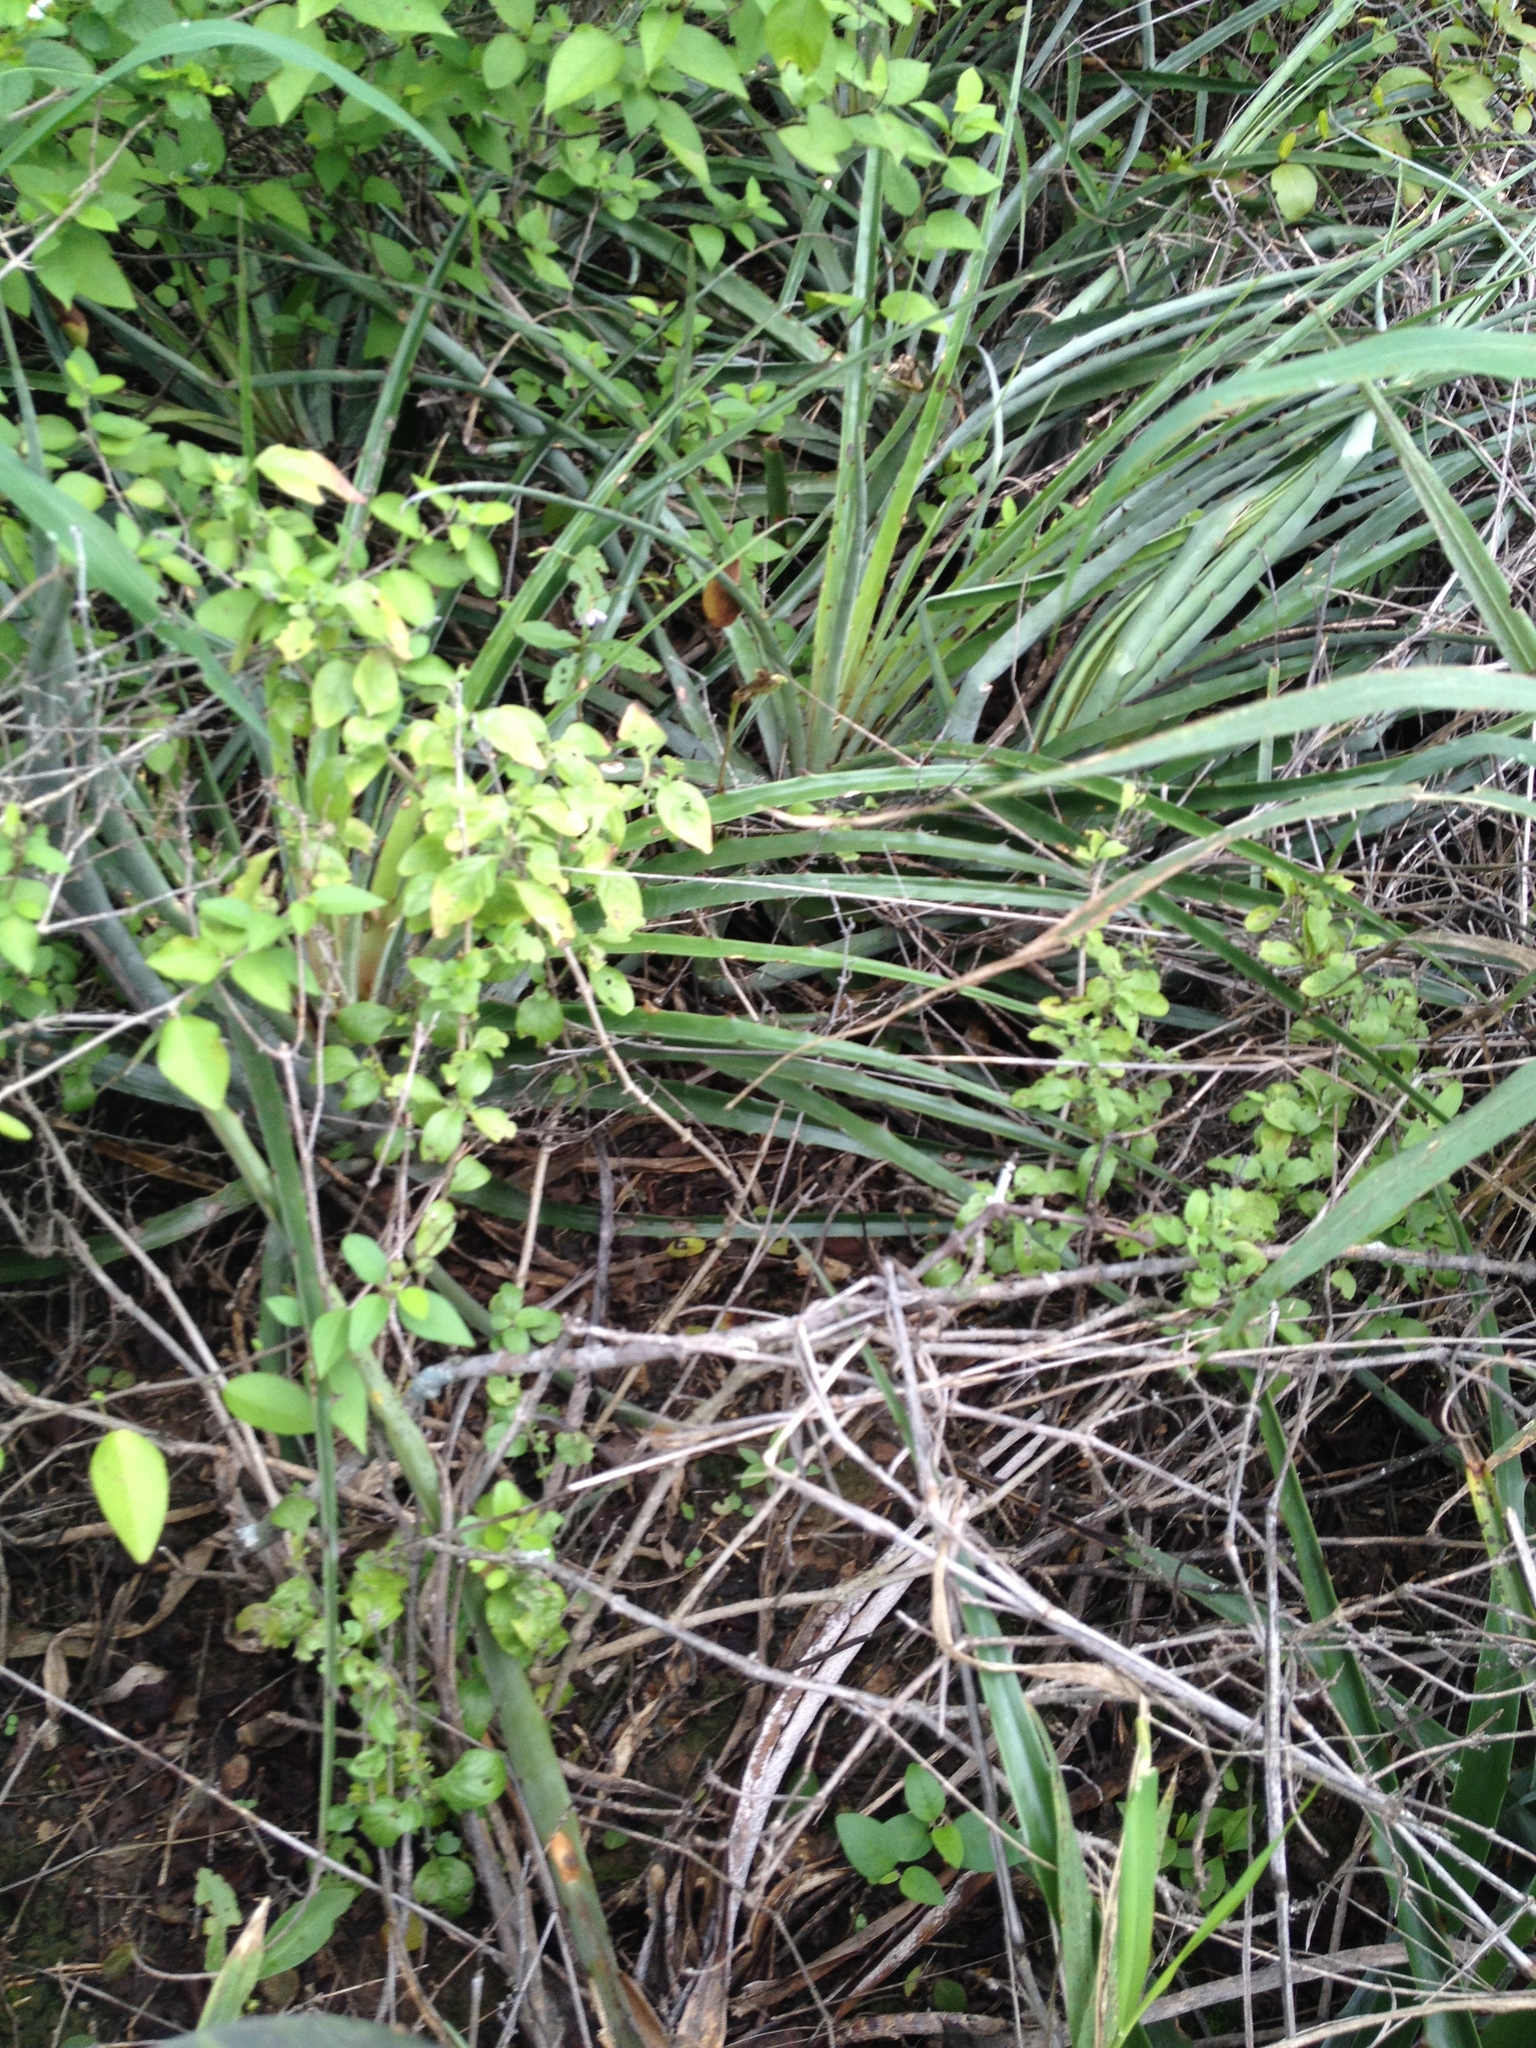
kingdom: Plantae
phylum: Tracheophyta
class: Liliopsida
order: Poales
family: Bromeliaceae
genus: Bromelia
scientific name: Bromelia hieronymi
